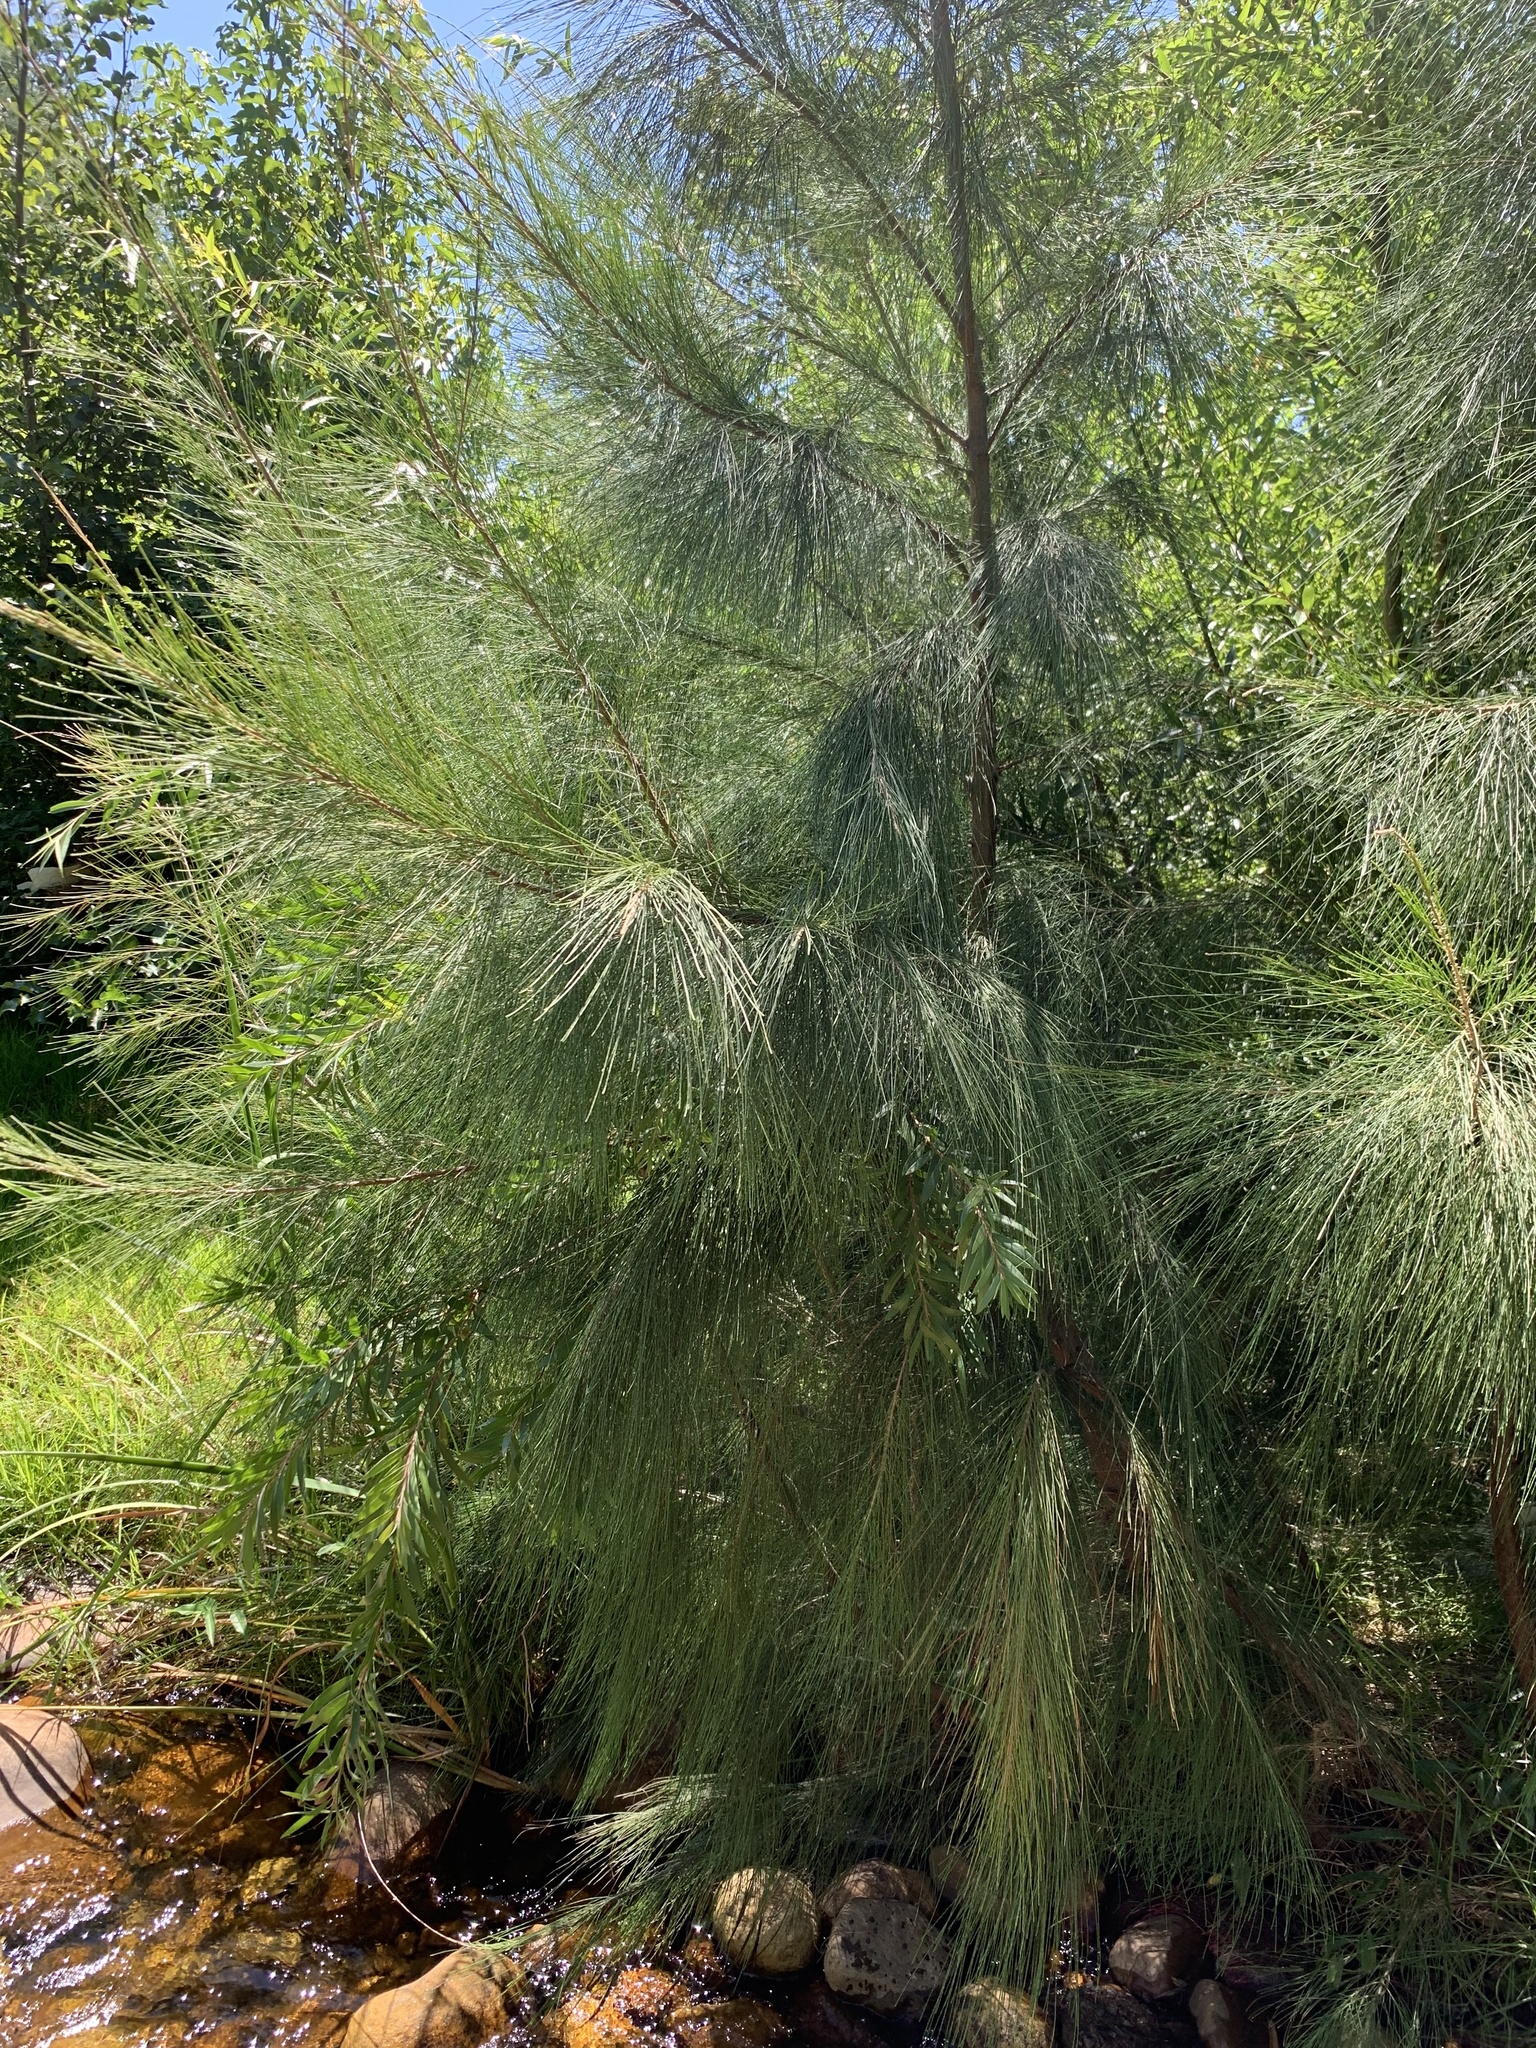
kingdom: Plantae
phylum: Tracheophyta
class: Magnoliopsida
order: Fagales
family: Casuarinaceae
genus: Casuarina
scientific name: Casuarina cunninghamiana
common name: River sheoak
